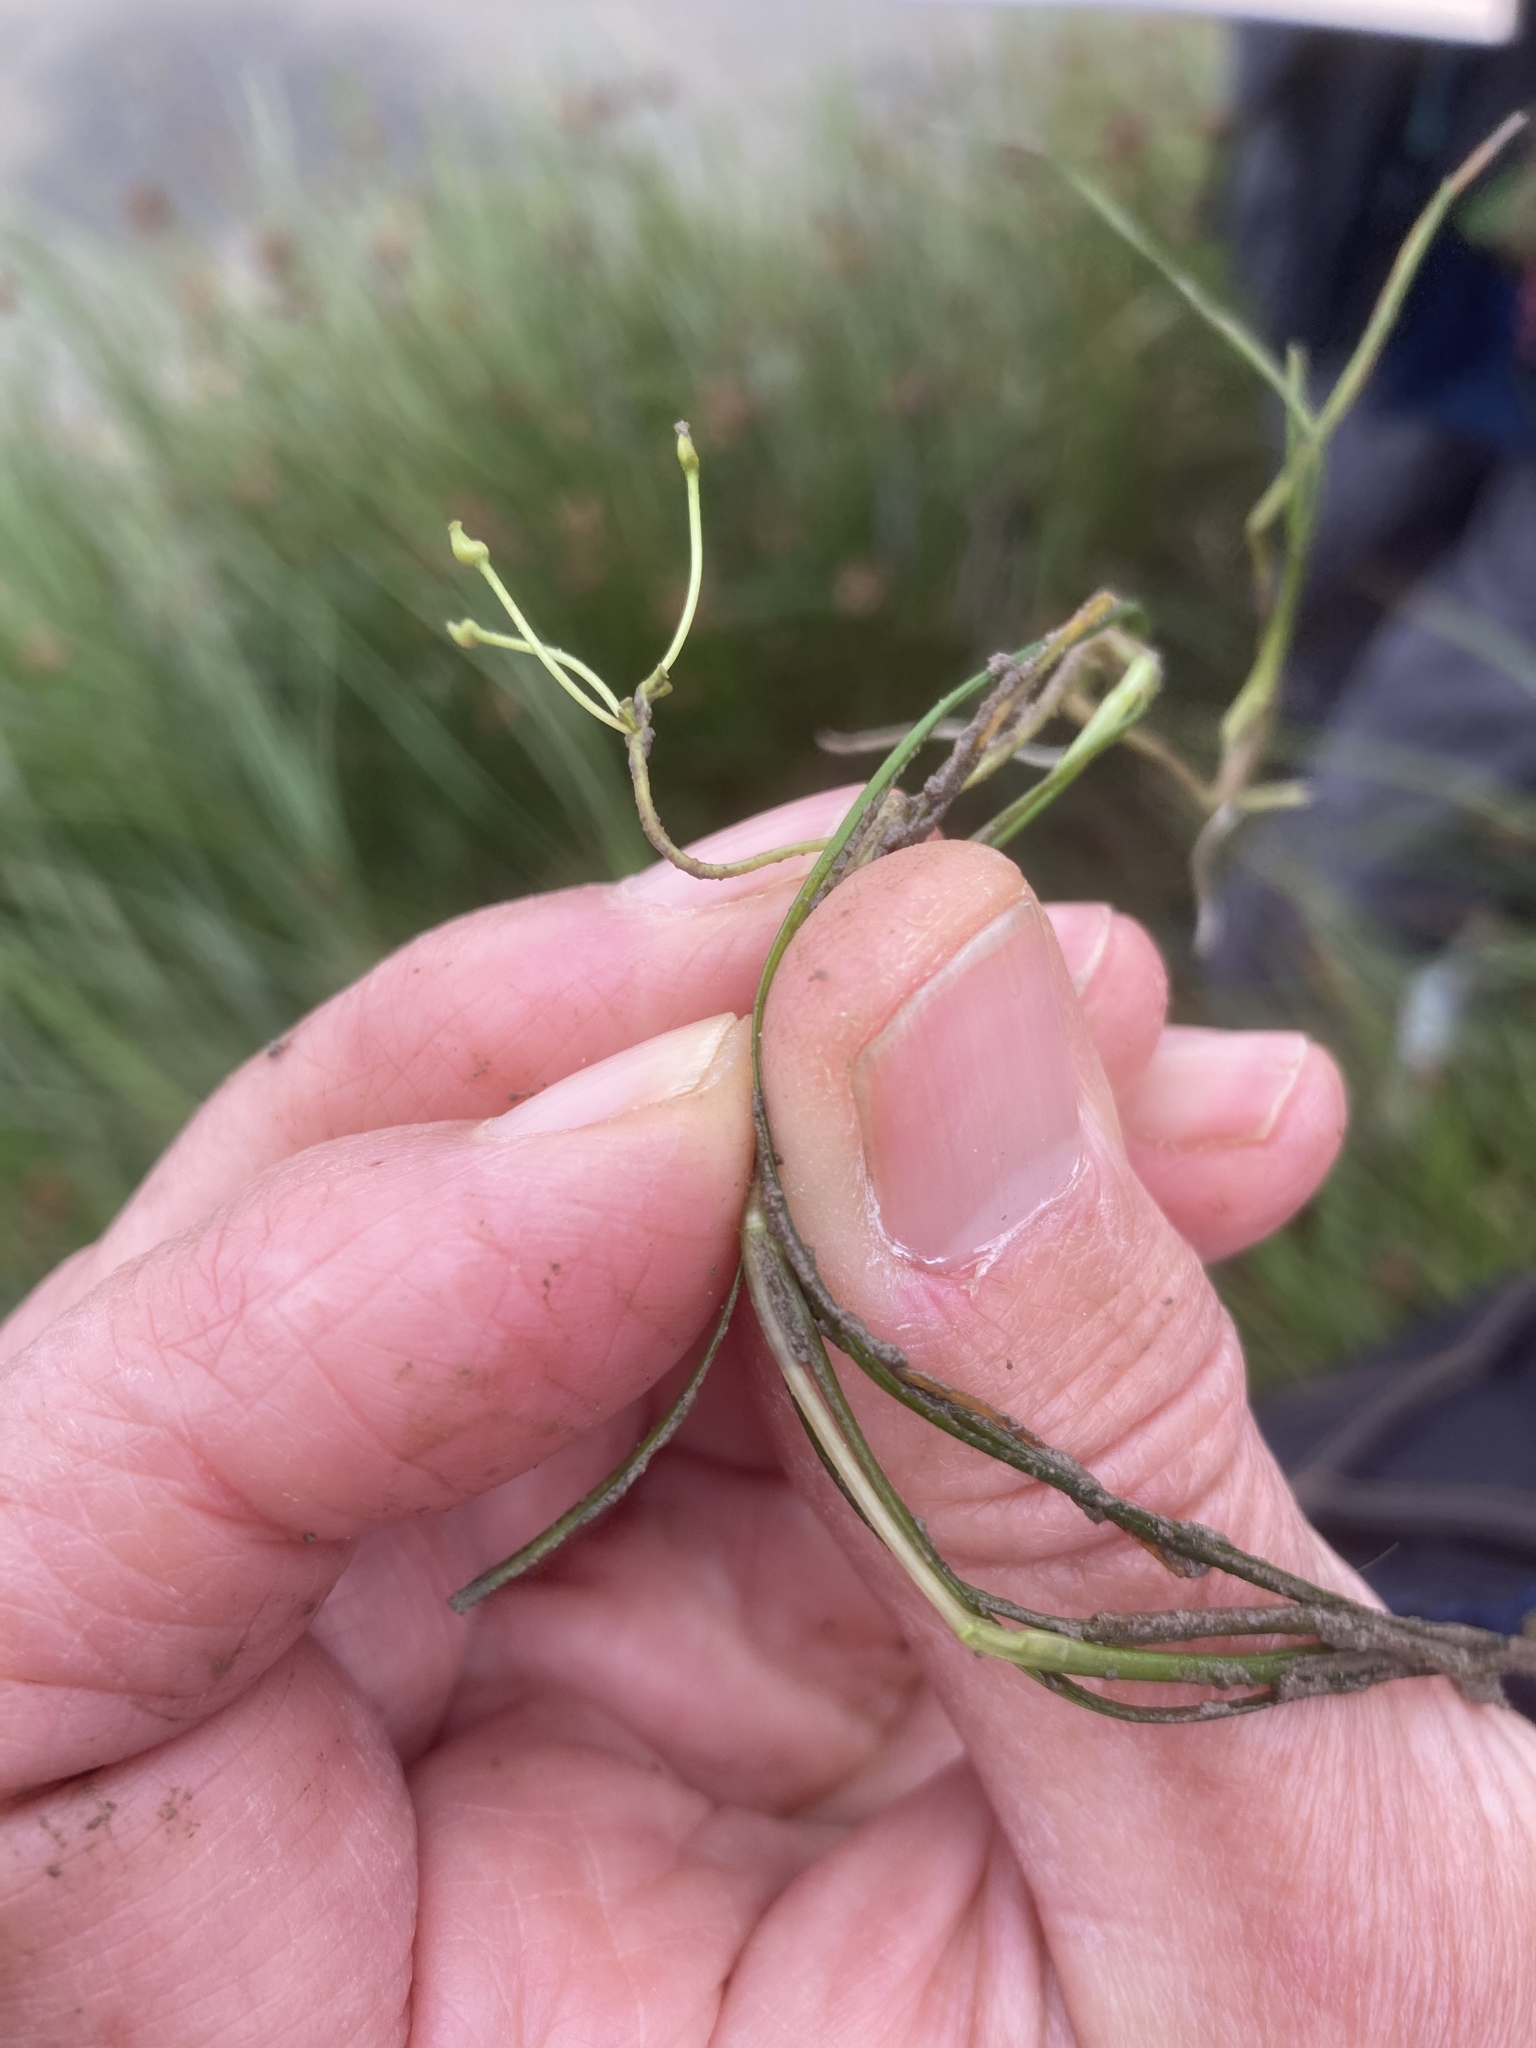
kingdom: Plantae
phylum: Tracheophyta
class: Liliopsida
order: Alismatales
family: Ruppiaceae
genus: Ruppia
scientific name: Ruppia maritima
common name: Beaked tasselweed
